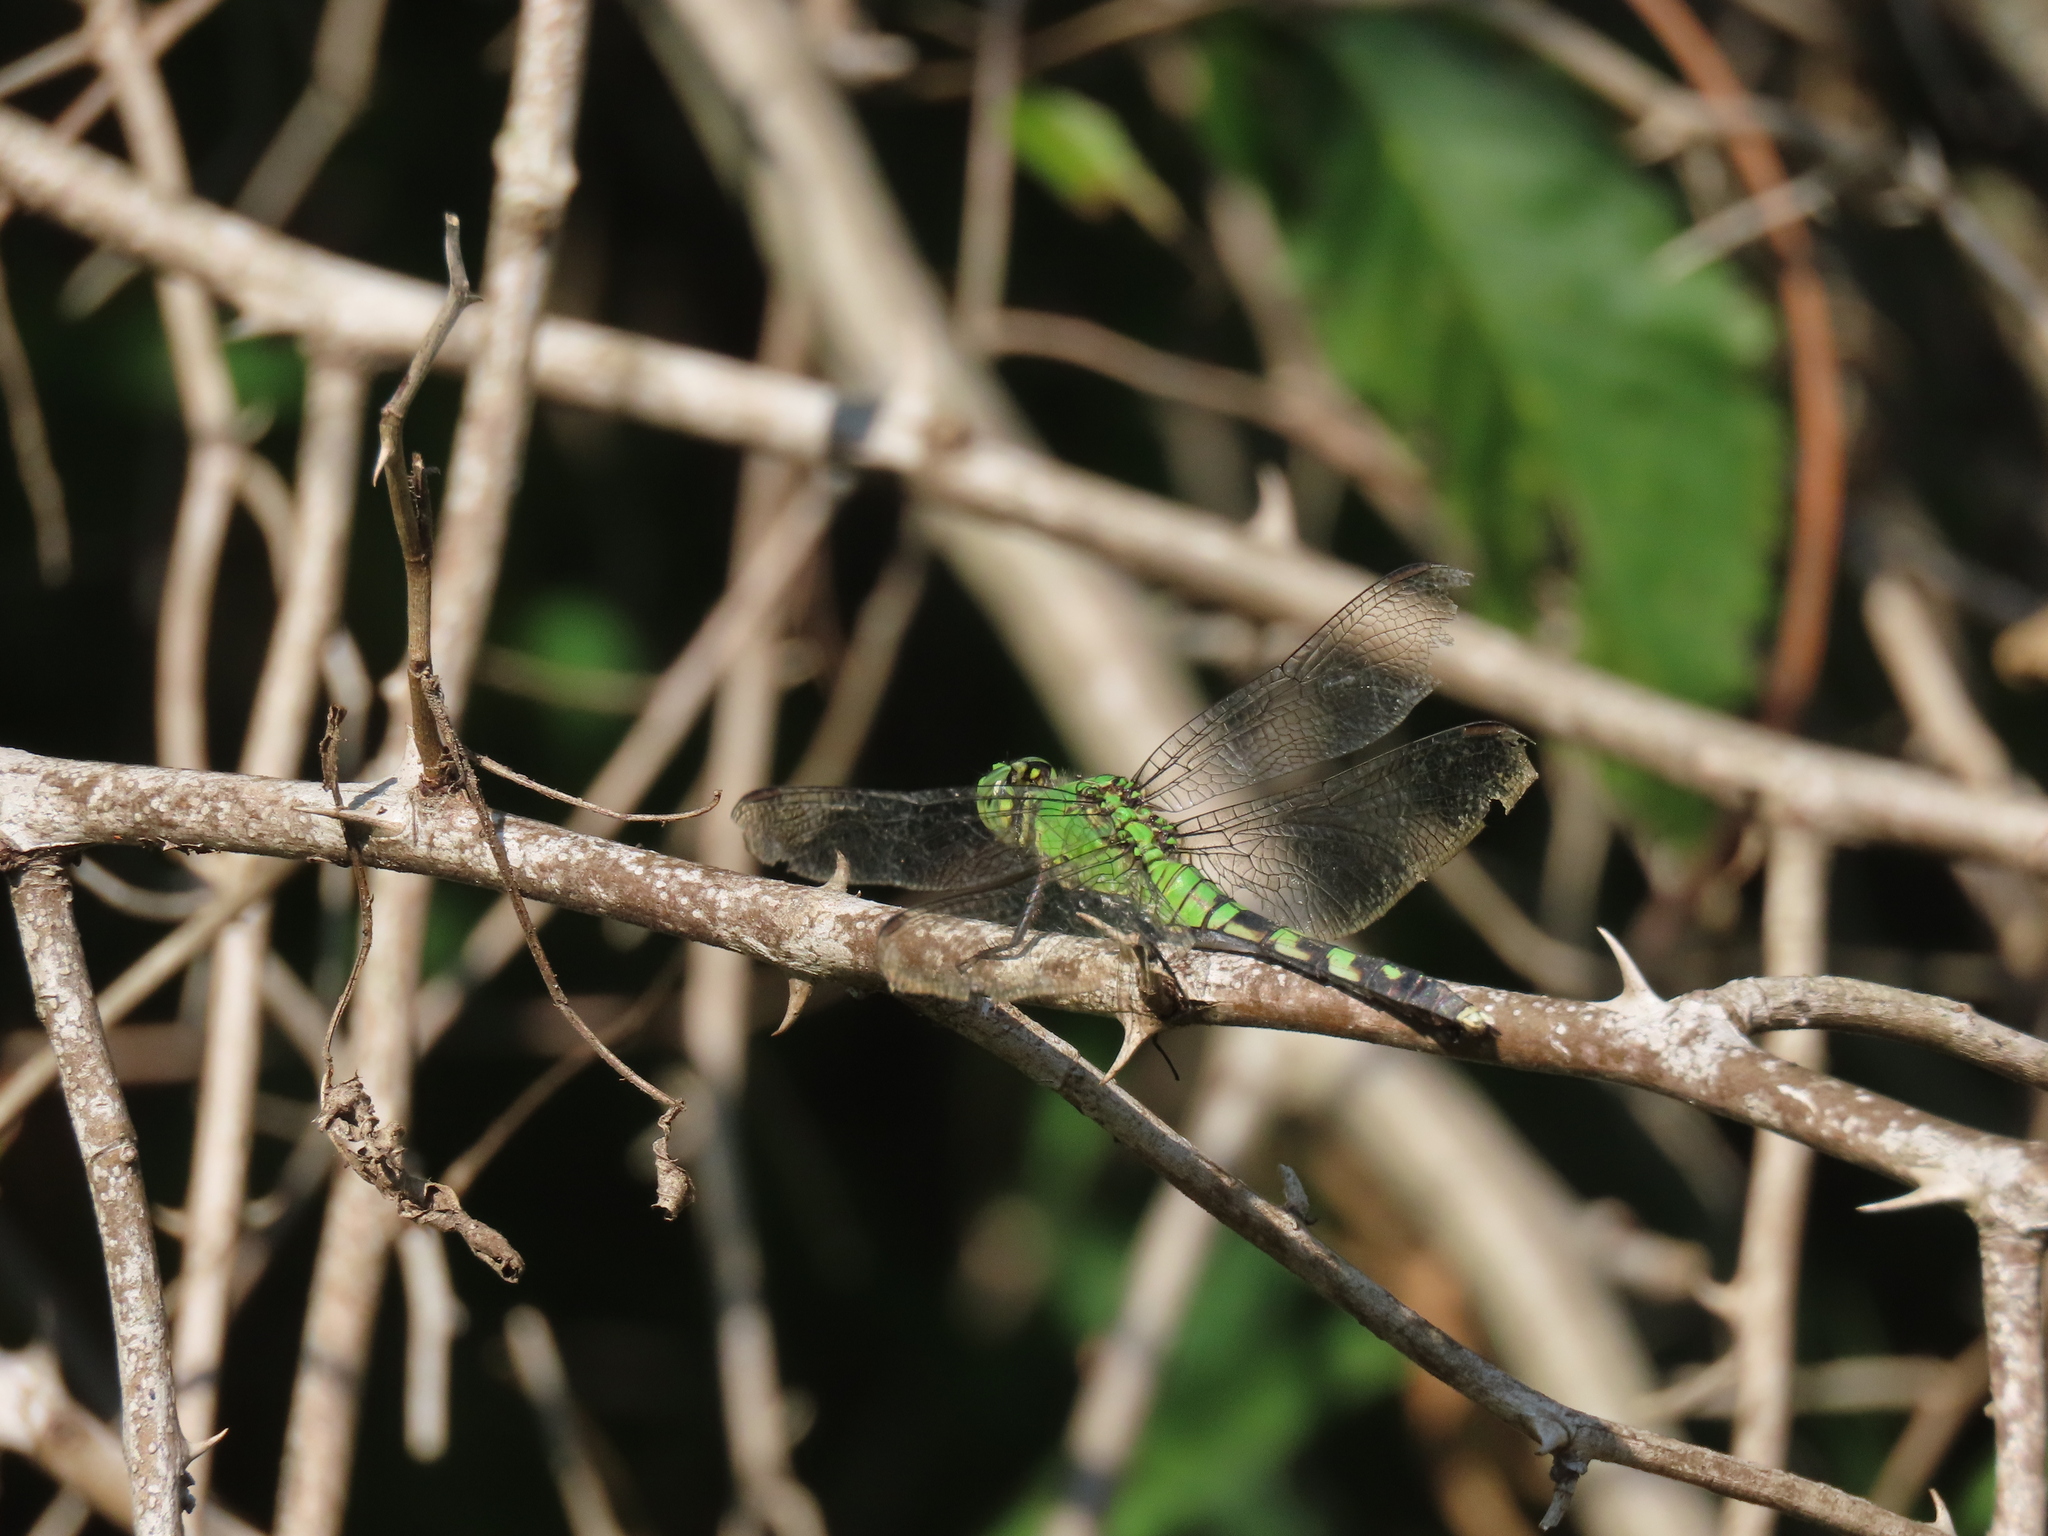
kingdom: Animalia
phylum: Arthropoda
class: Insecta
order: Odonata
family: Libellulidae
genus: Erythemis
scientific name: Erythemis simplicicollis
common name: Eastern pondhawk
